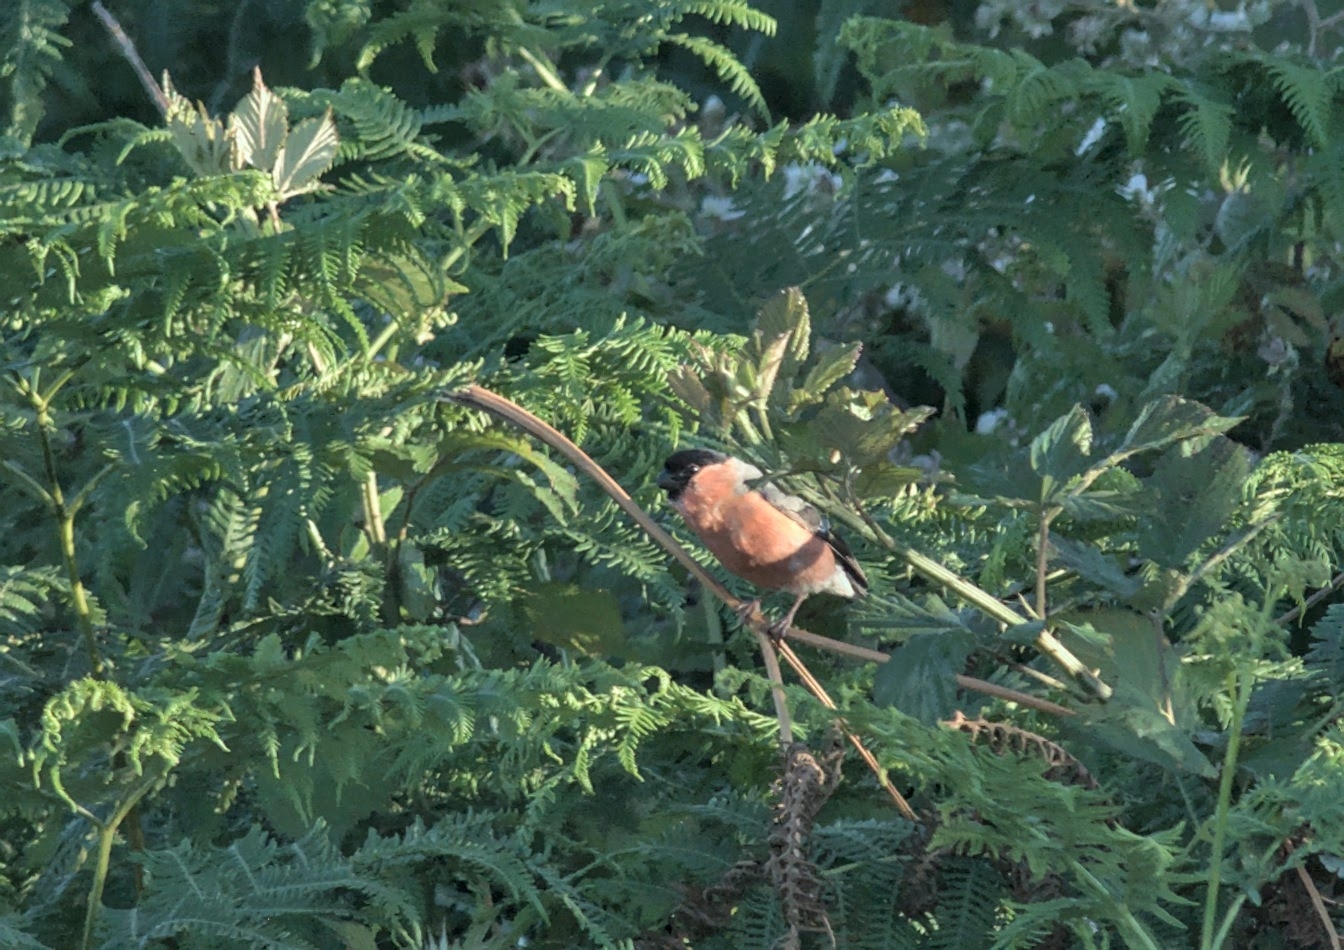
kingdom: Animalia
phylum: Chordata
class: Aves
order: Passeriformes
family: Fringillidae
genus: Pyrrhula
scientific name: Pyrrhula pyrrhula
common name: Eurasian bullfinch
